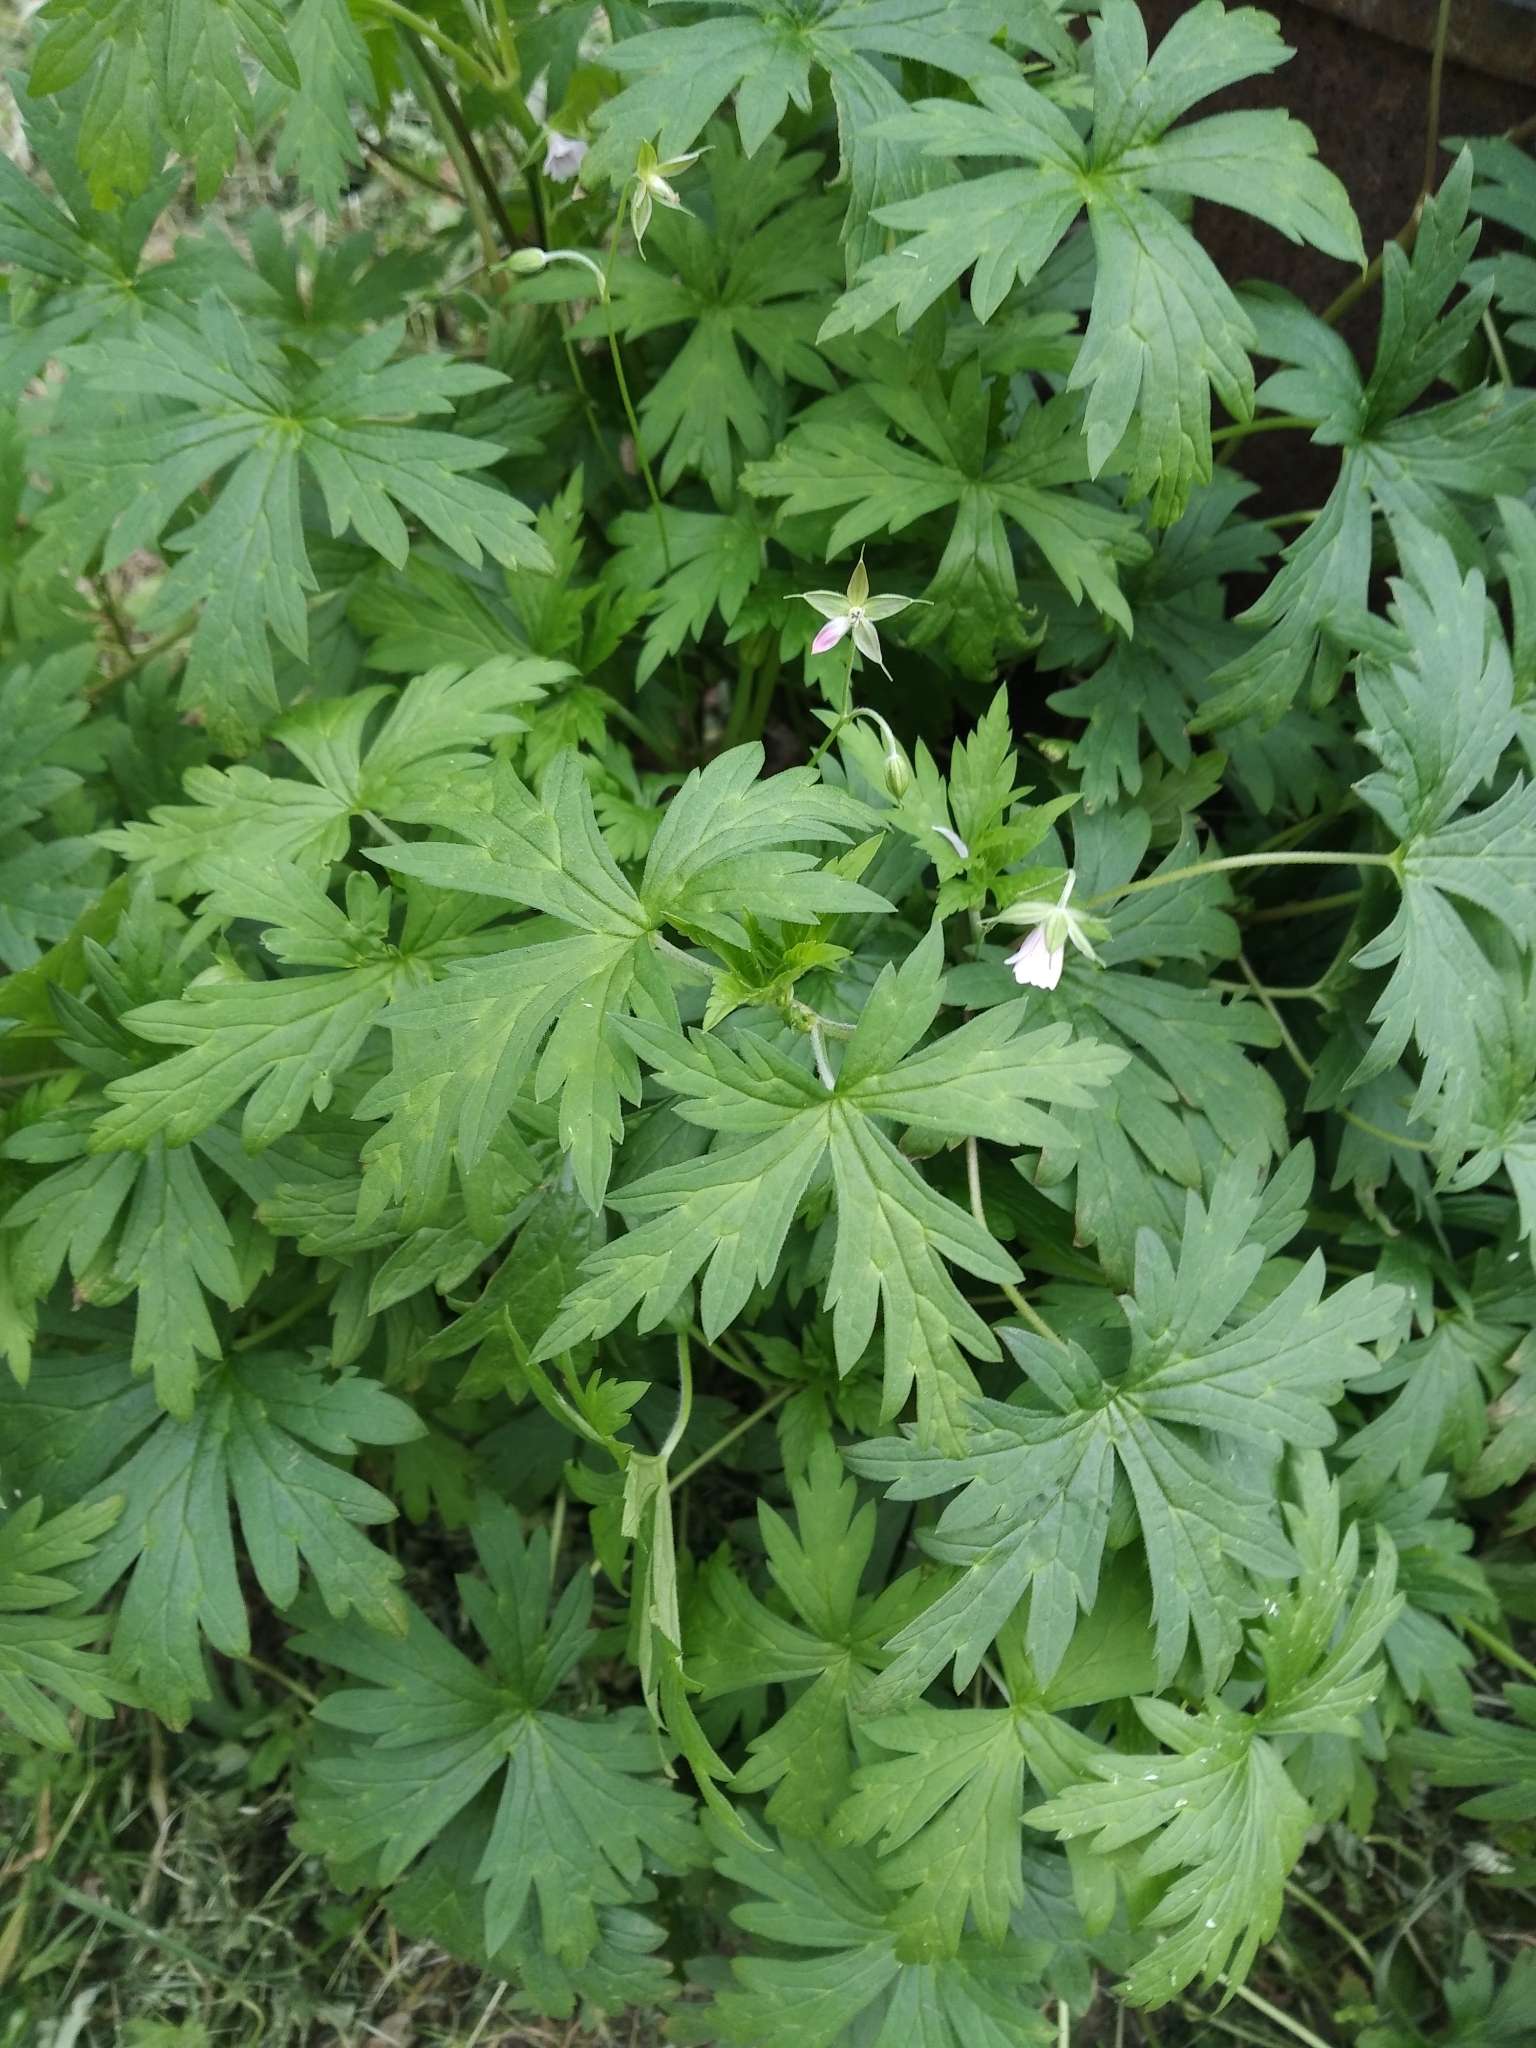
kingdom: Plantae
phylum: Tracheophyta
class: Magnoliopsida
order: Geraniales
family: Geraniaceae
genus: Geranium
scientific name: Geranium sibiricum
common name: Siberian crane's-bill
